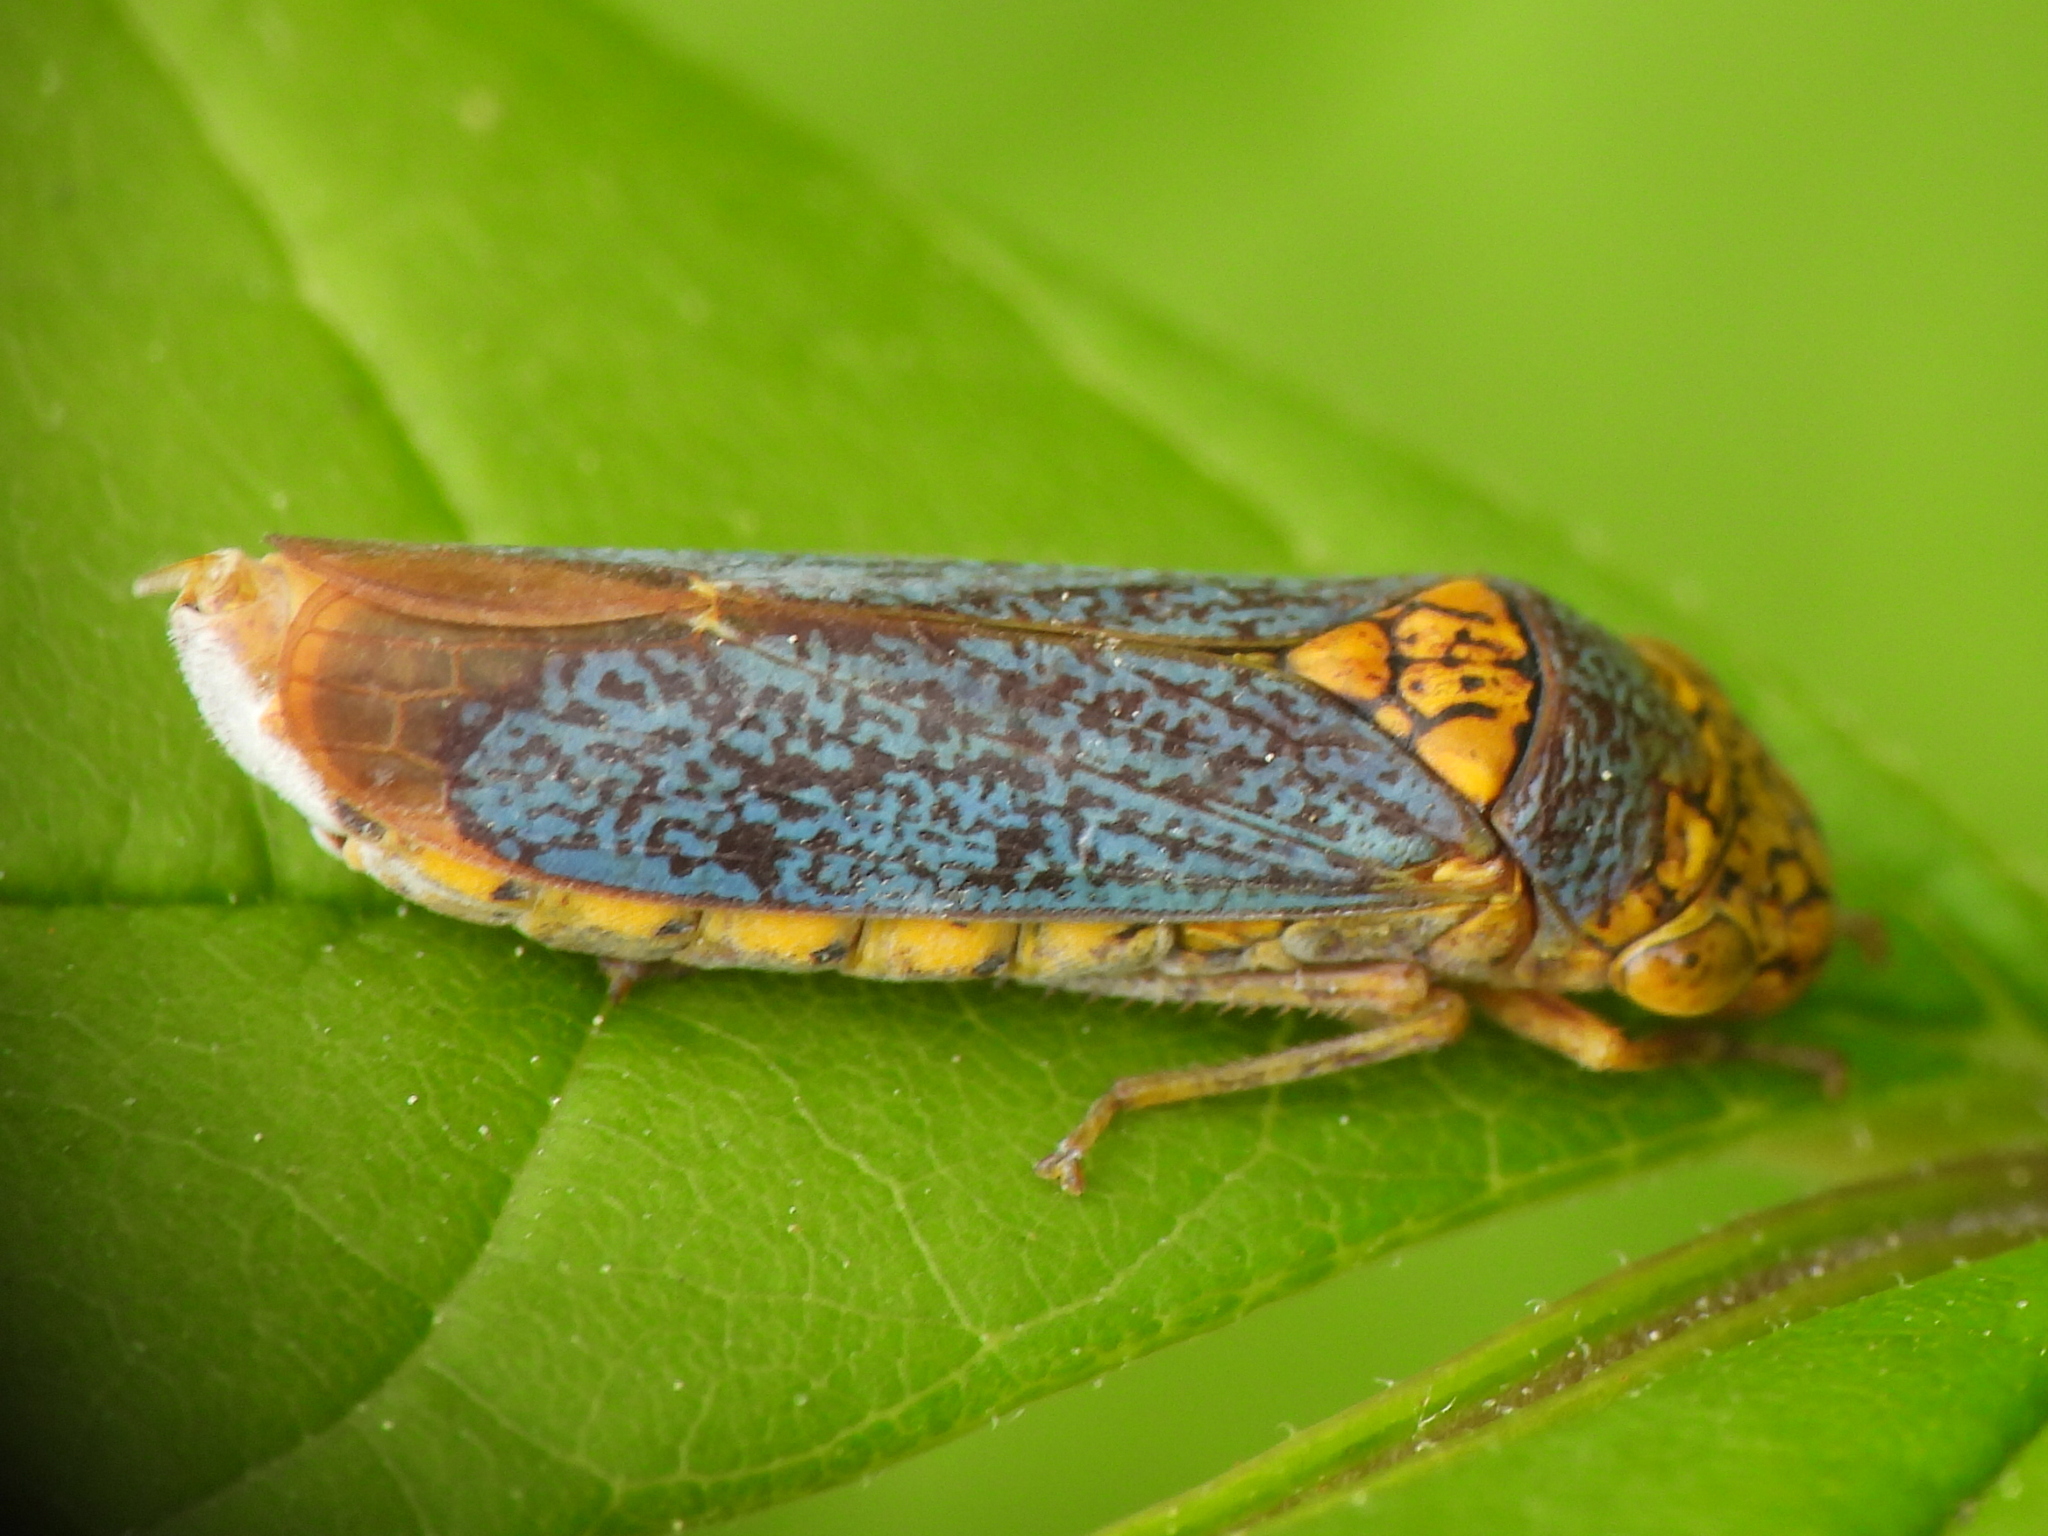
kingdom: Animalia
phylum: Arthropoda
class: Insecta
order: Hemiptera
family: Cicadellidae
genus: Oncometopia
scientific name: Oncometopia orbona
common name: Broad-headed sharpshooter
